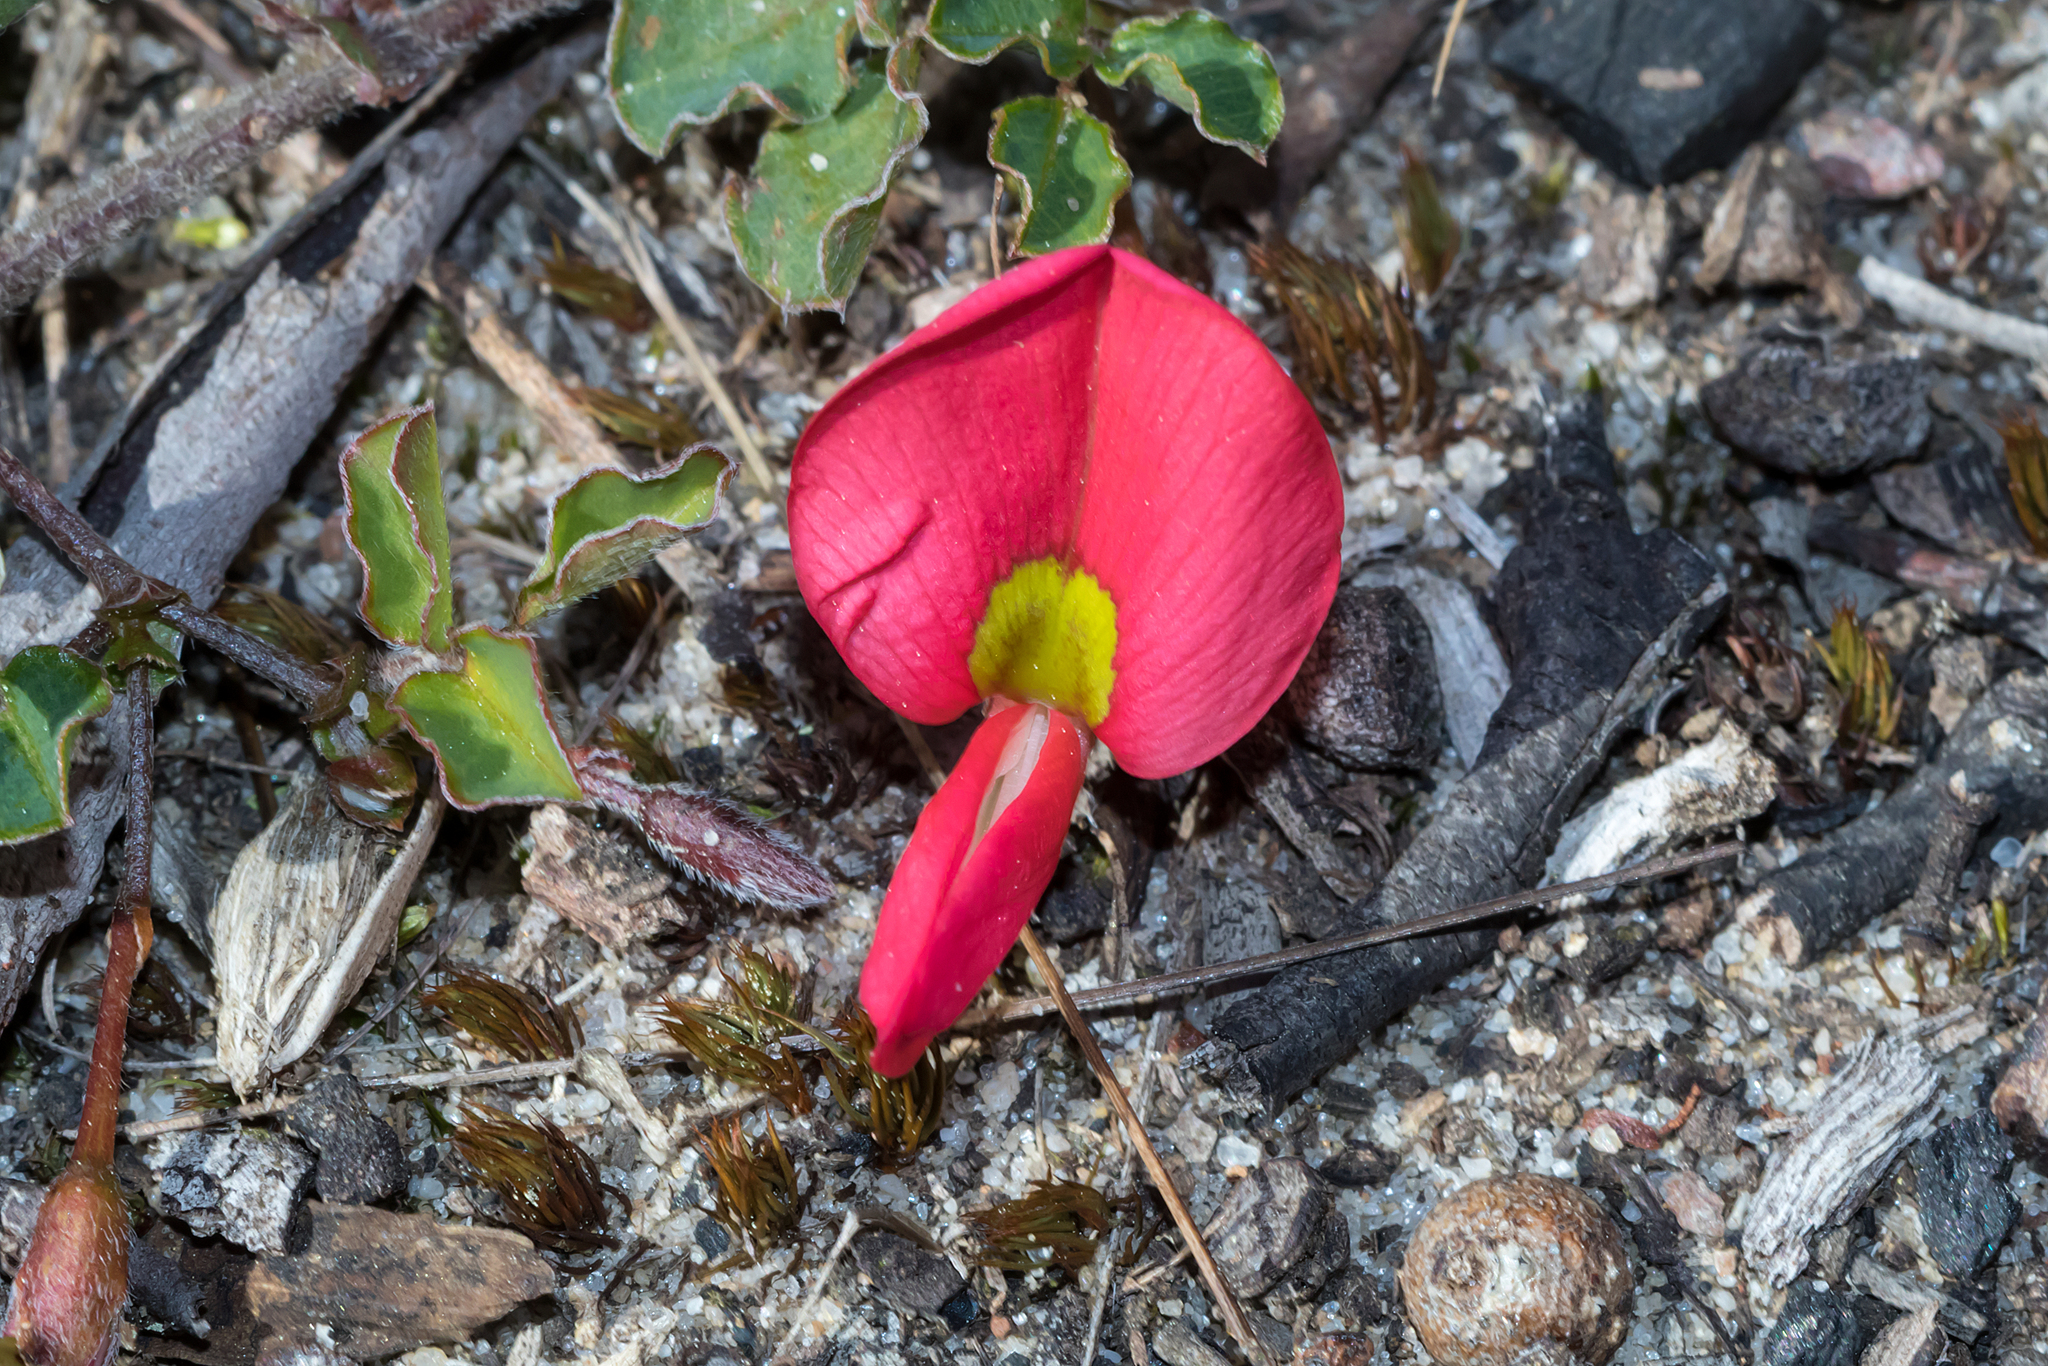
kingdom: Plantae
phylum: Tracheophyta
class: Magnoliopsida
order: Fabales
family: Fabaceae
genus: Kennedia
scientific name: Kennedia prostrata
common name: Running-postman
